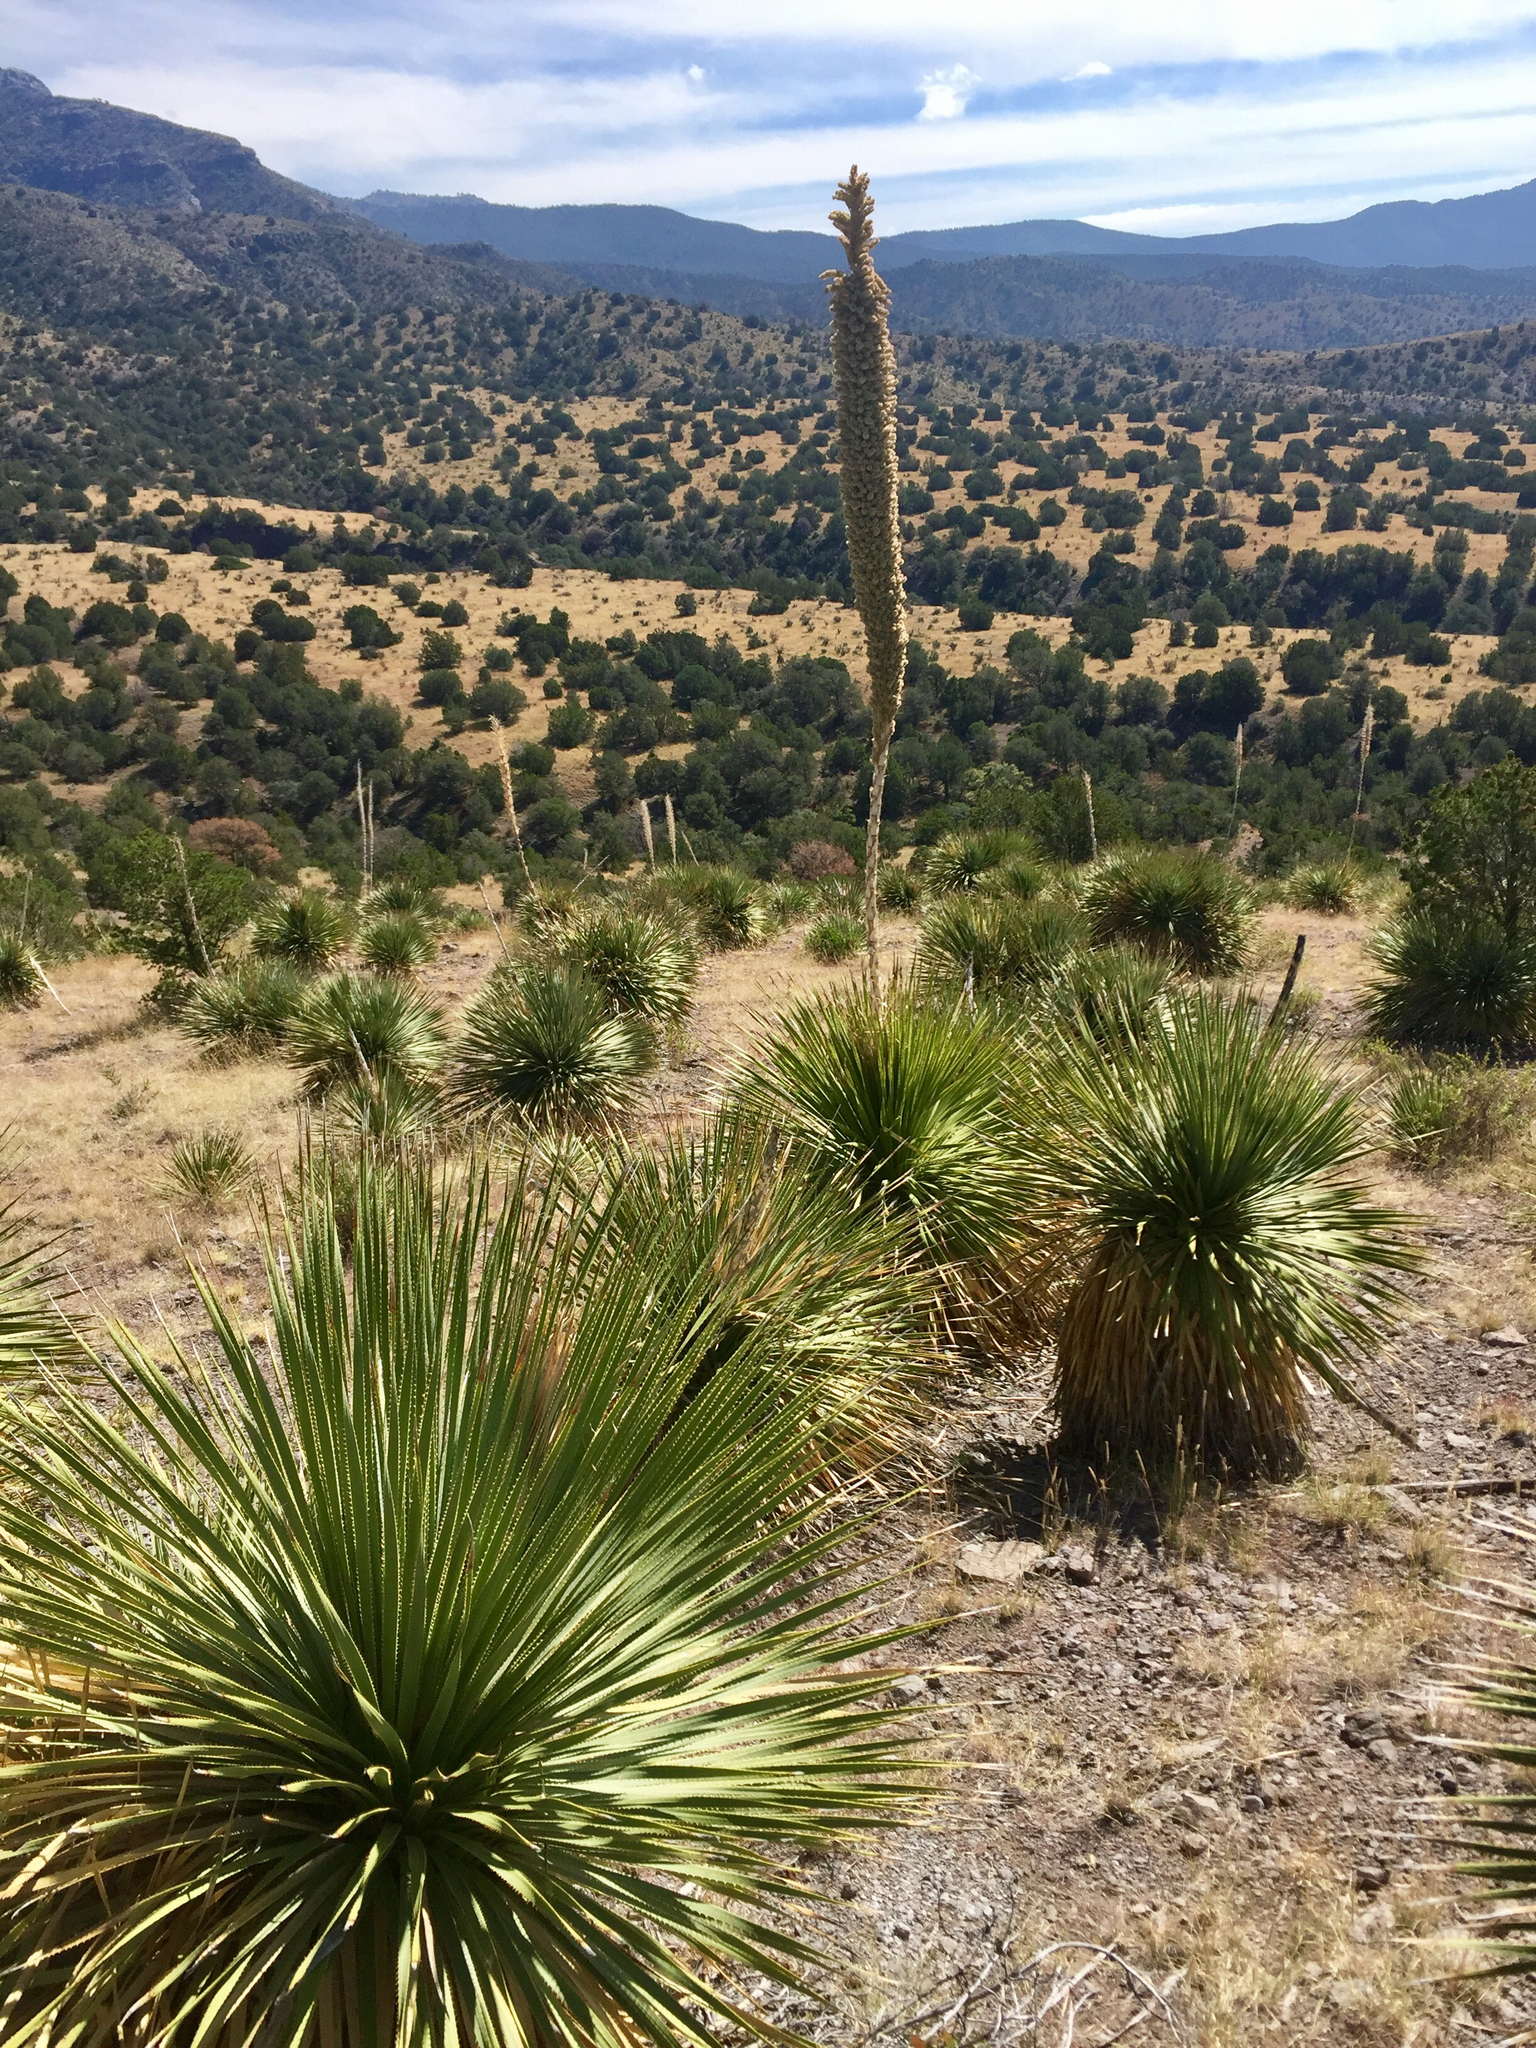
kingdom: Plantae
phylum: Tracheophyta
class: Liliopsida
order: Asparagales
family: Asparagaceae
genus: Dasylirion
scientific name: Dasylirion wheeleri
